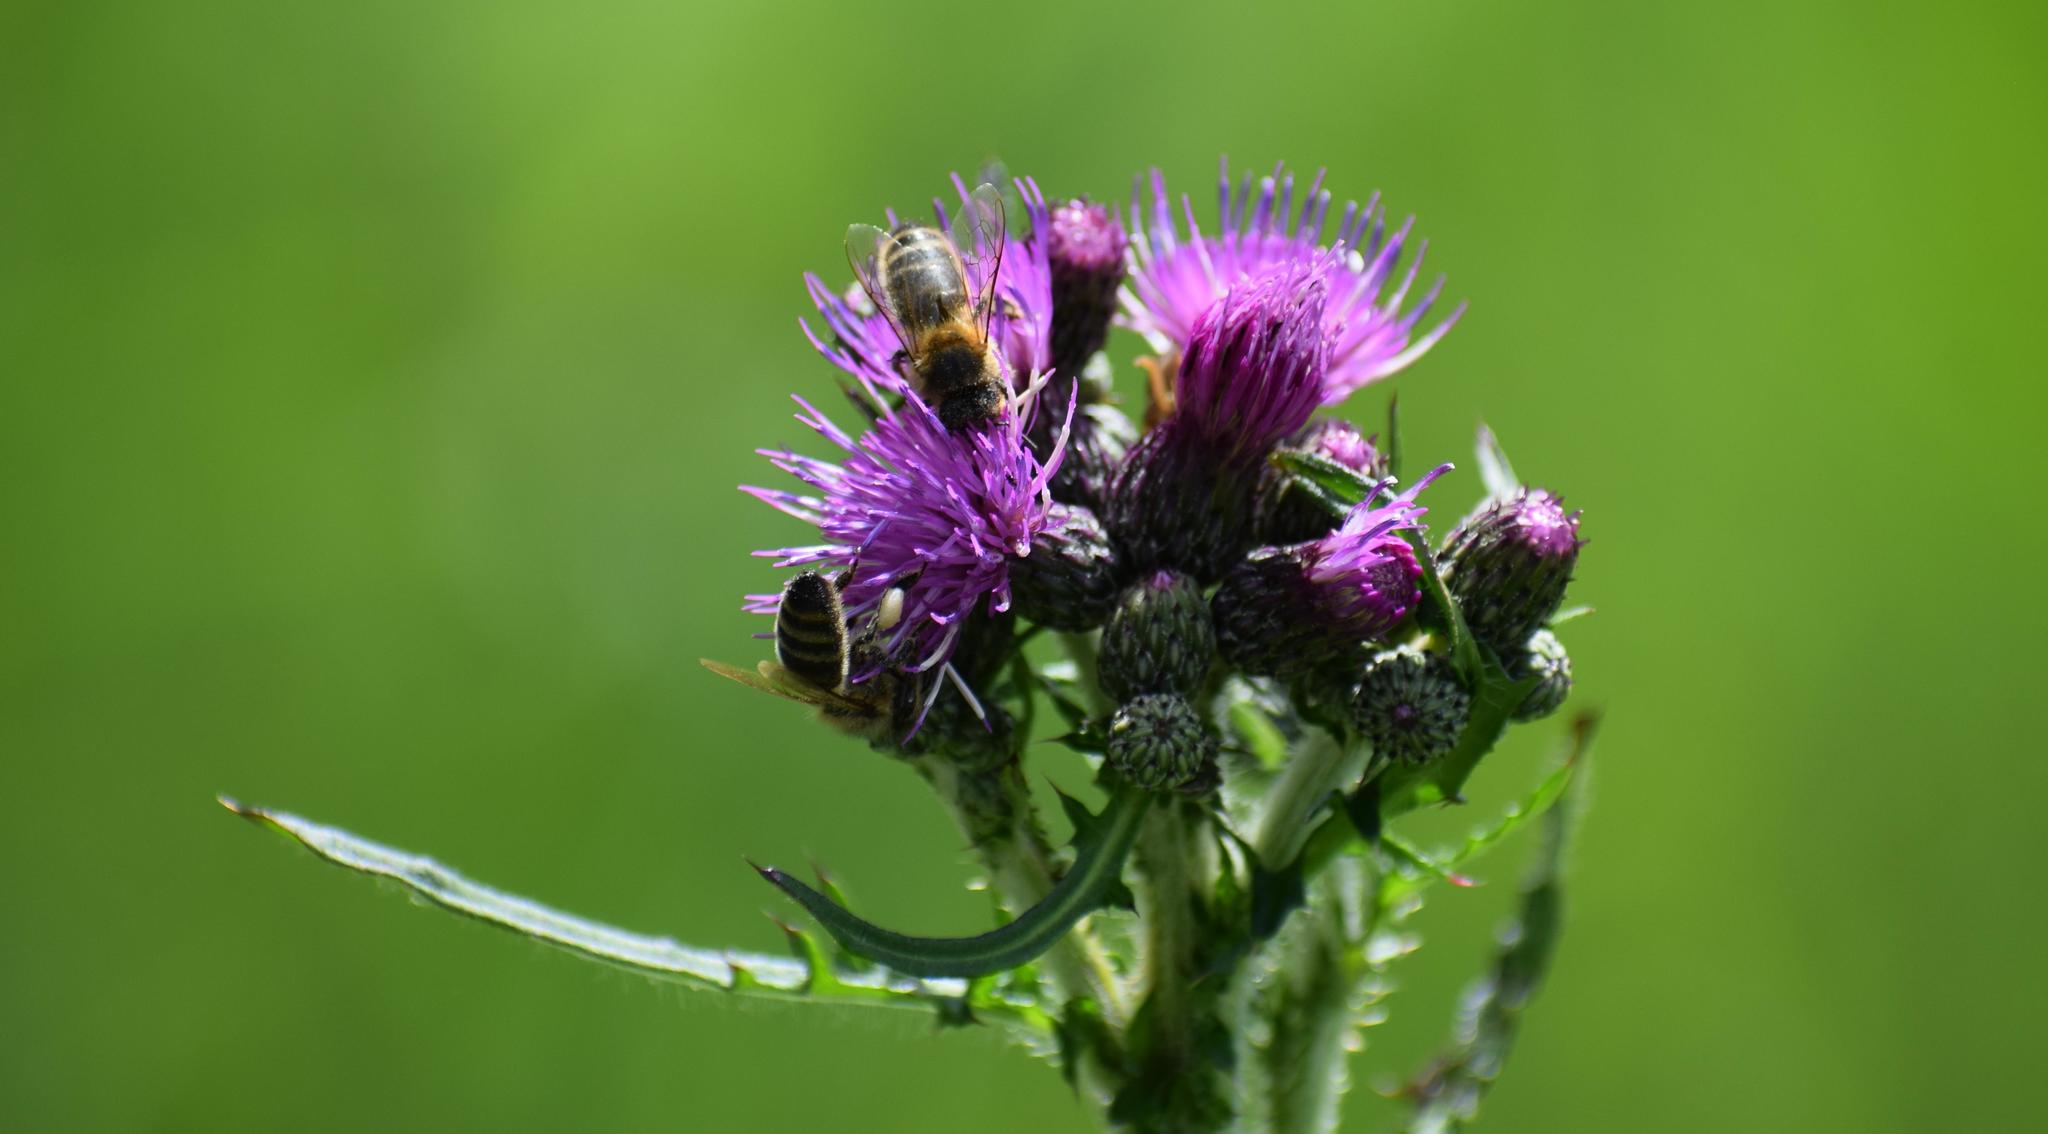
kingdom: Animalia
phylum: Arthropoda
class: Insecta
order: Hymenoptera
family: Apidae
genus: Apis
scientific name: Apis mellifera
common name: Honey bee
